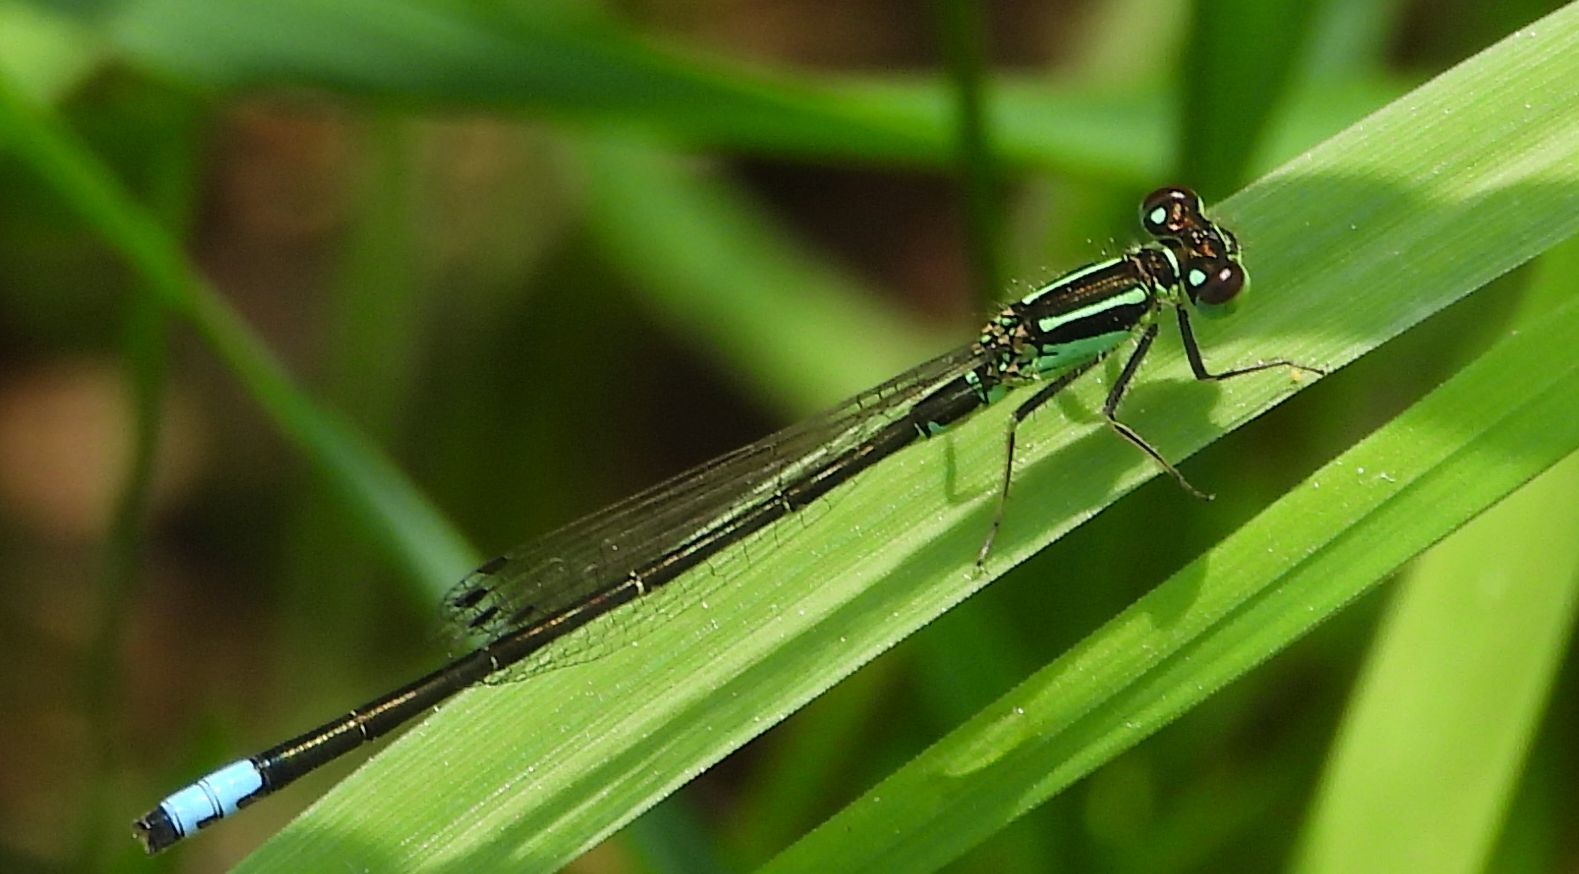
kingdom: Animalia
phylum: Arthropoda
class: Insecta
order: Odonata
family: Coenagrionidae
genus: Ischnura
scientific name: Ischnura verticalis
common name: Eastern forktail
